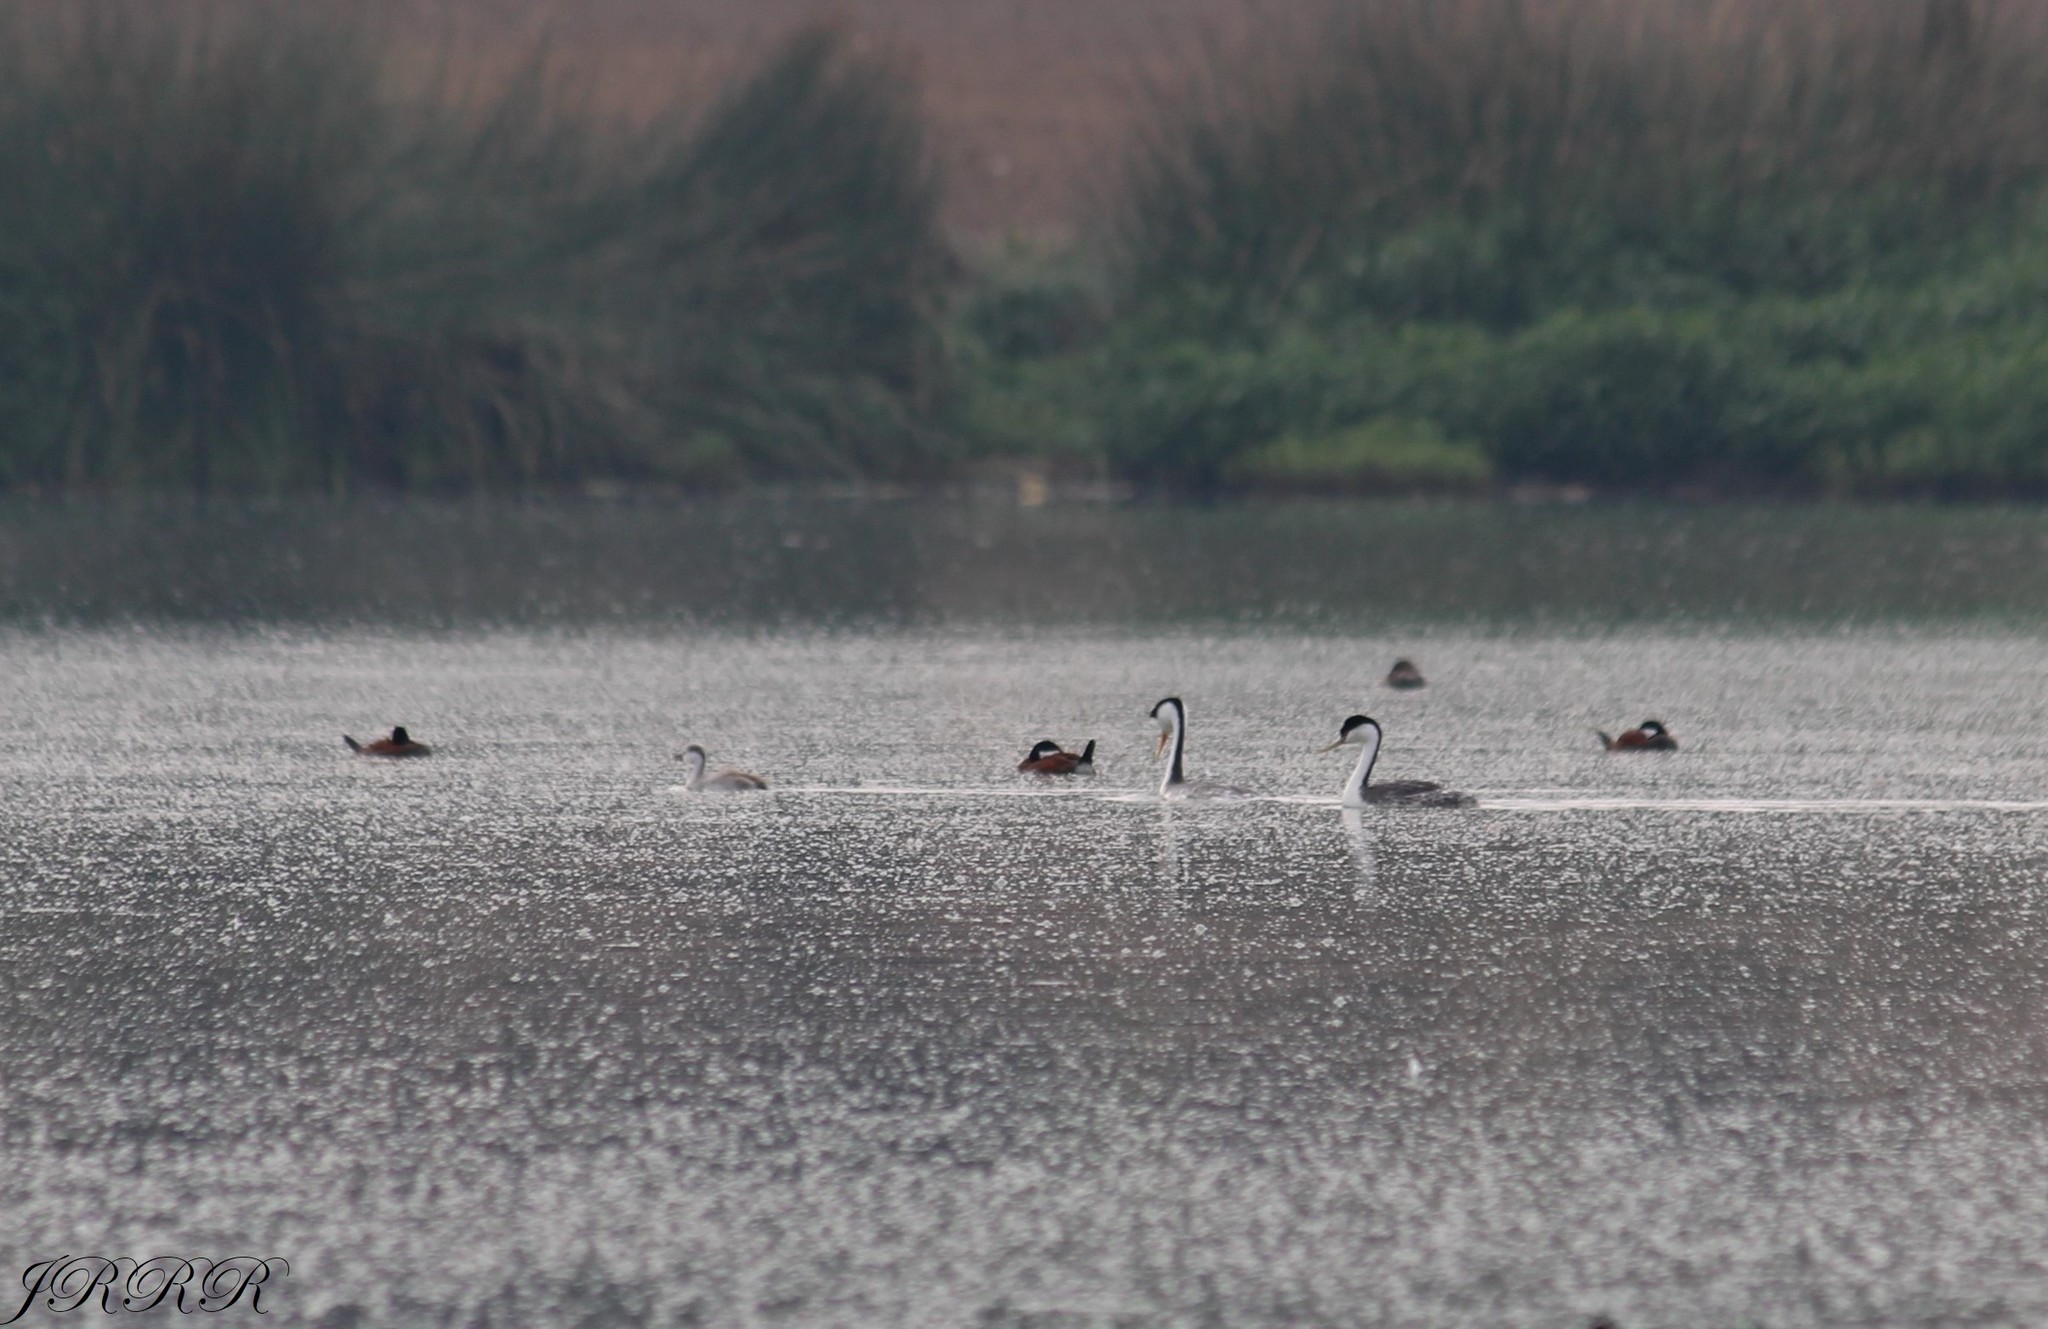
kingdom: Animalia
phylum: Chordata
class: Aves
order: Podicipediformes
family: Podicipedidae
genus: Aechmophorus
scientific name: Aechmophorus clarkii
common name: Clark's grebe
